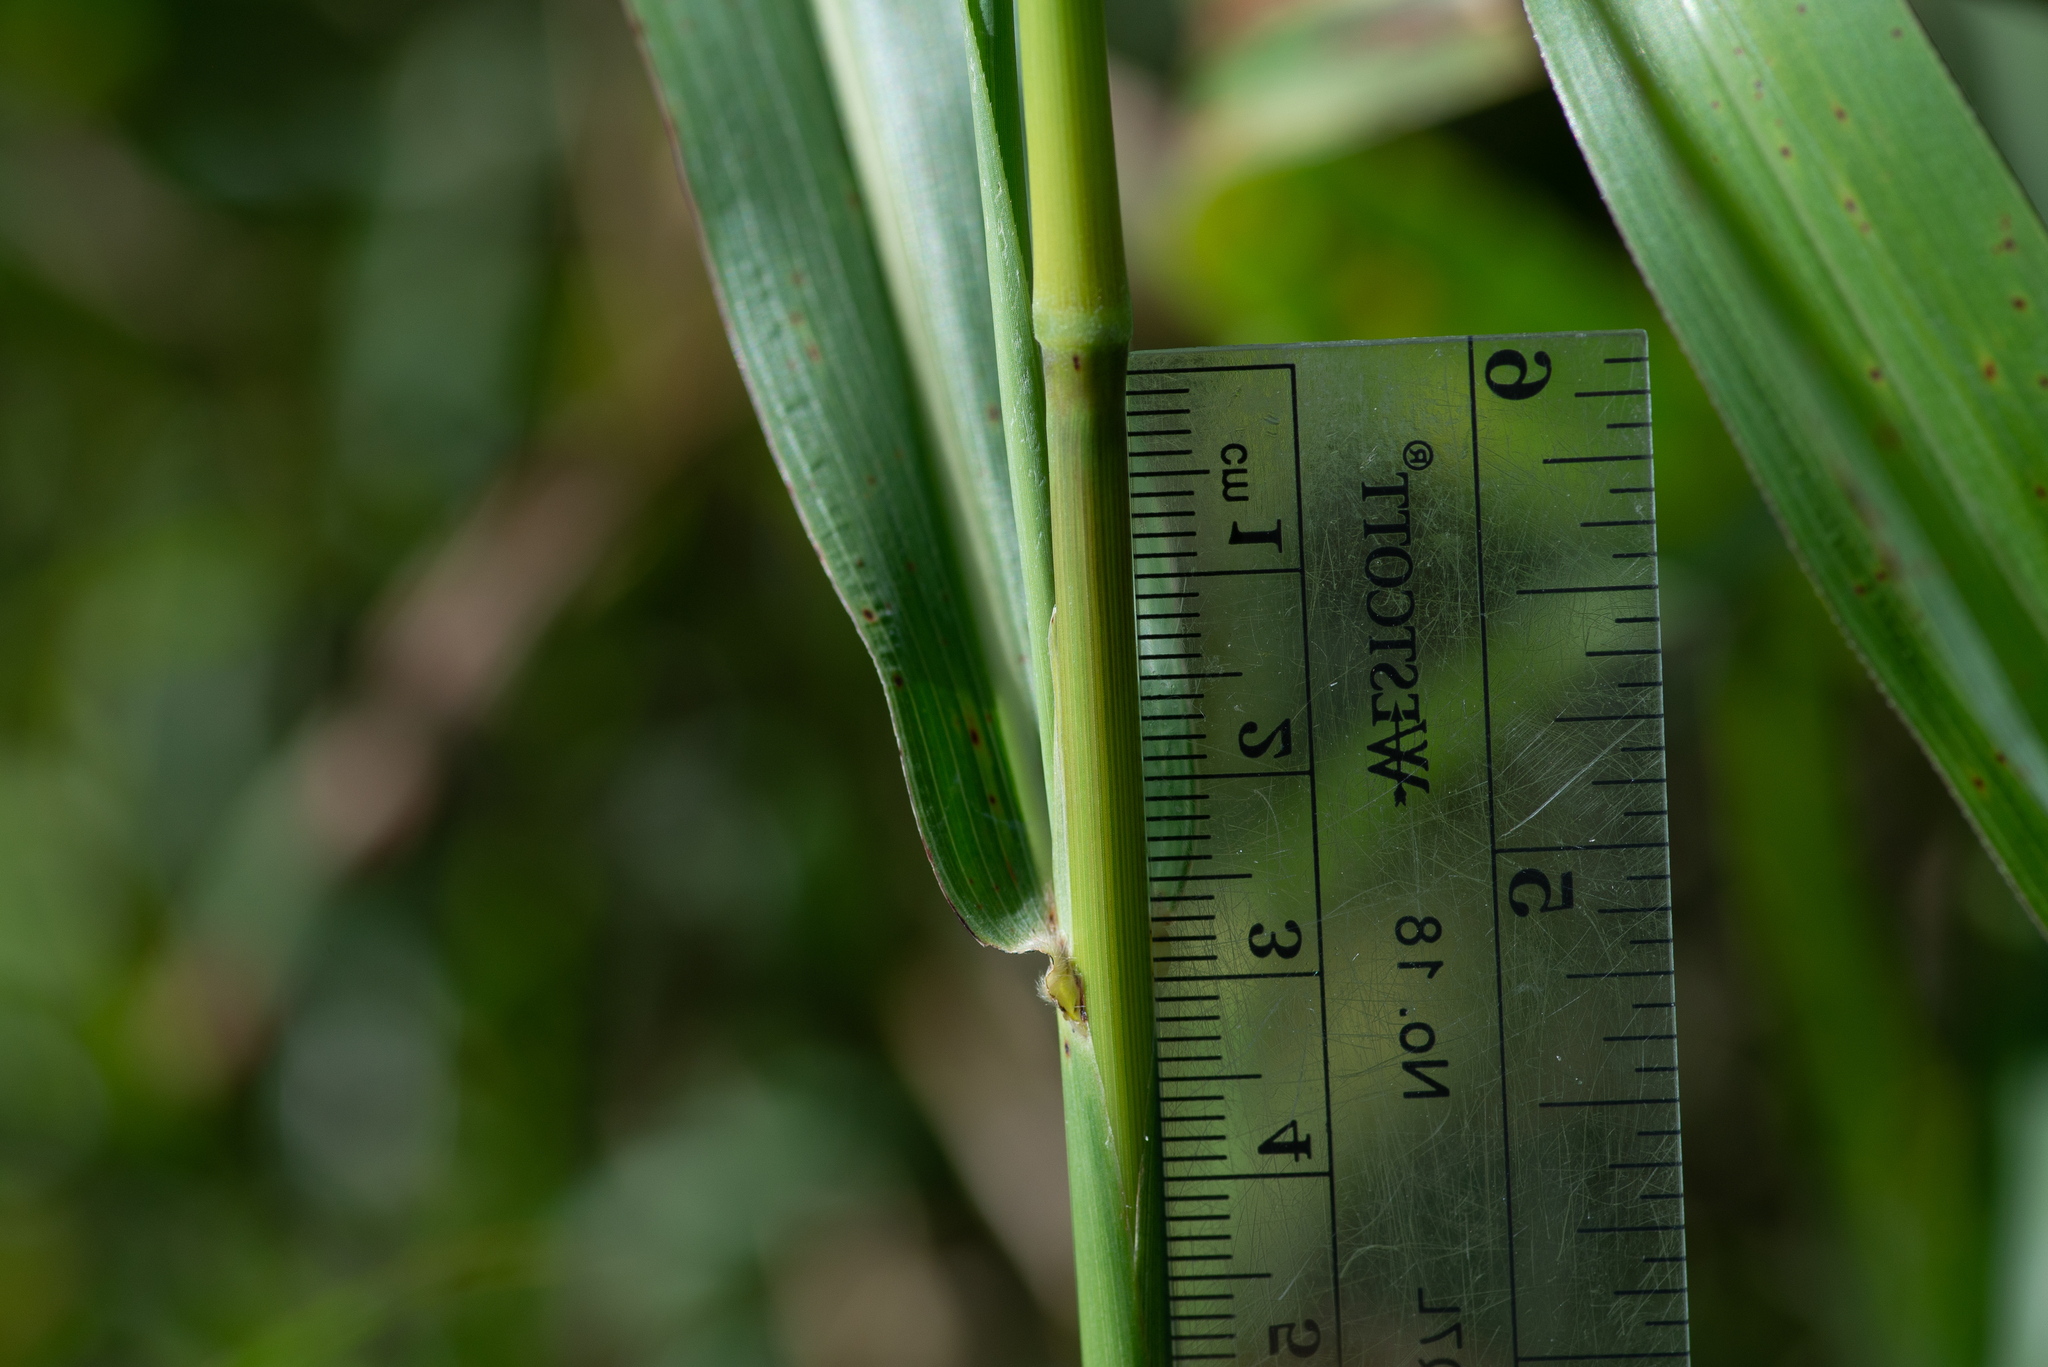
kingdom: Plantae
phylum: Tracheophyta
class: Liliopsida
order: Poales
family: Poaceae
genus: Sorghum
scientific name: Sorghum halepense
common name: Johnson-grass
